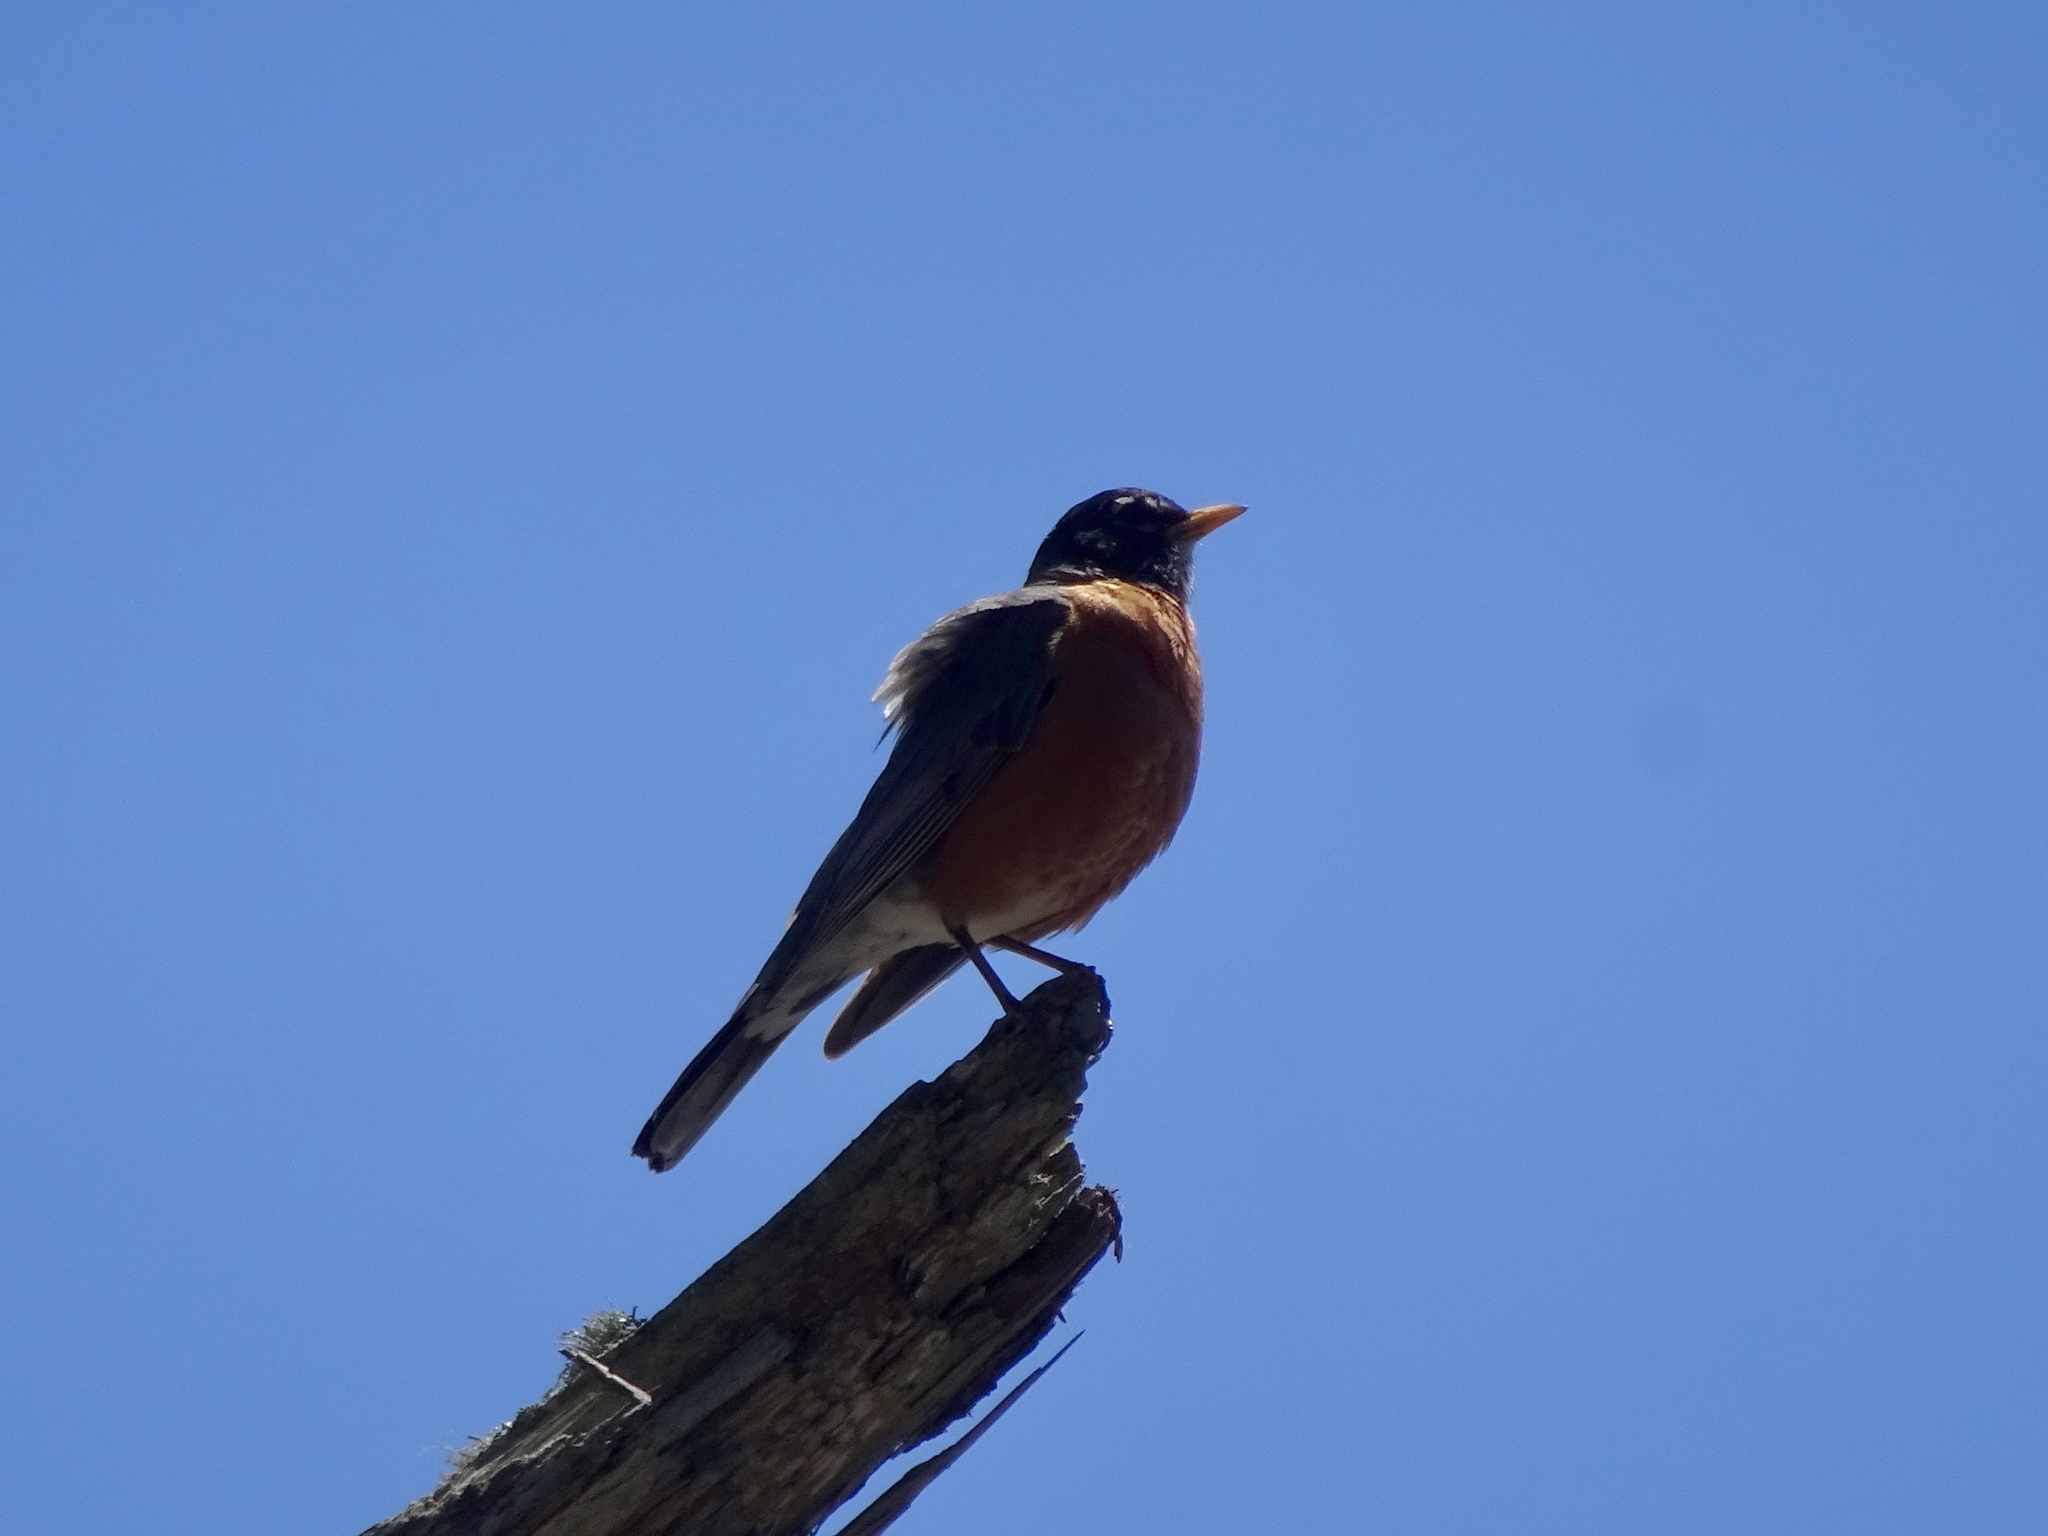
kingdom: Animalia
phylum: Chordata
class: Aves
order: Passeriformes
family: Turdidae
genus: Turdus
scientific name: Turdus migratorius
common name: American robin
